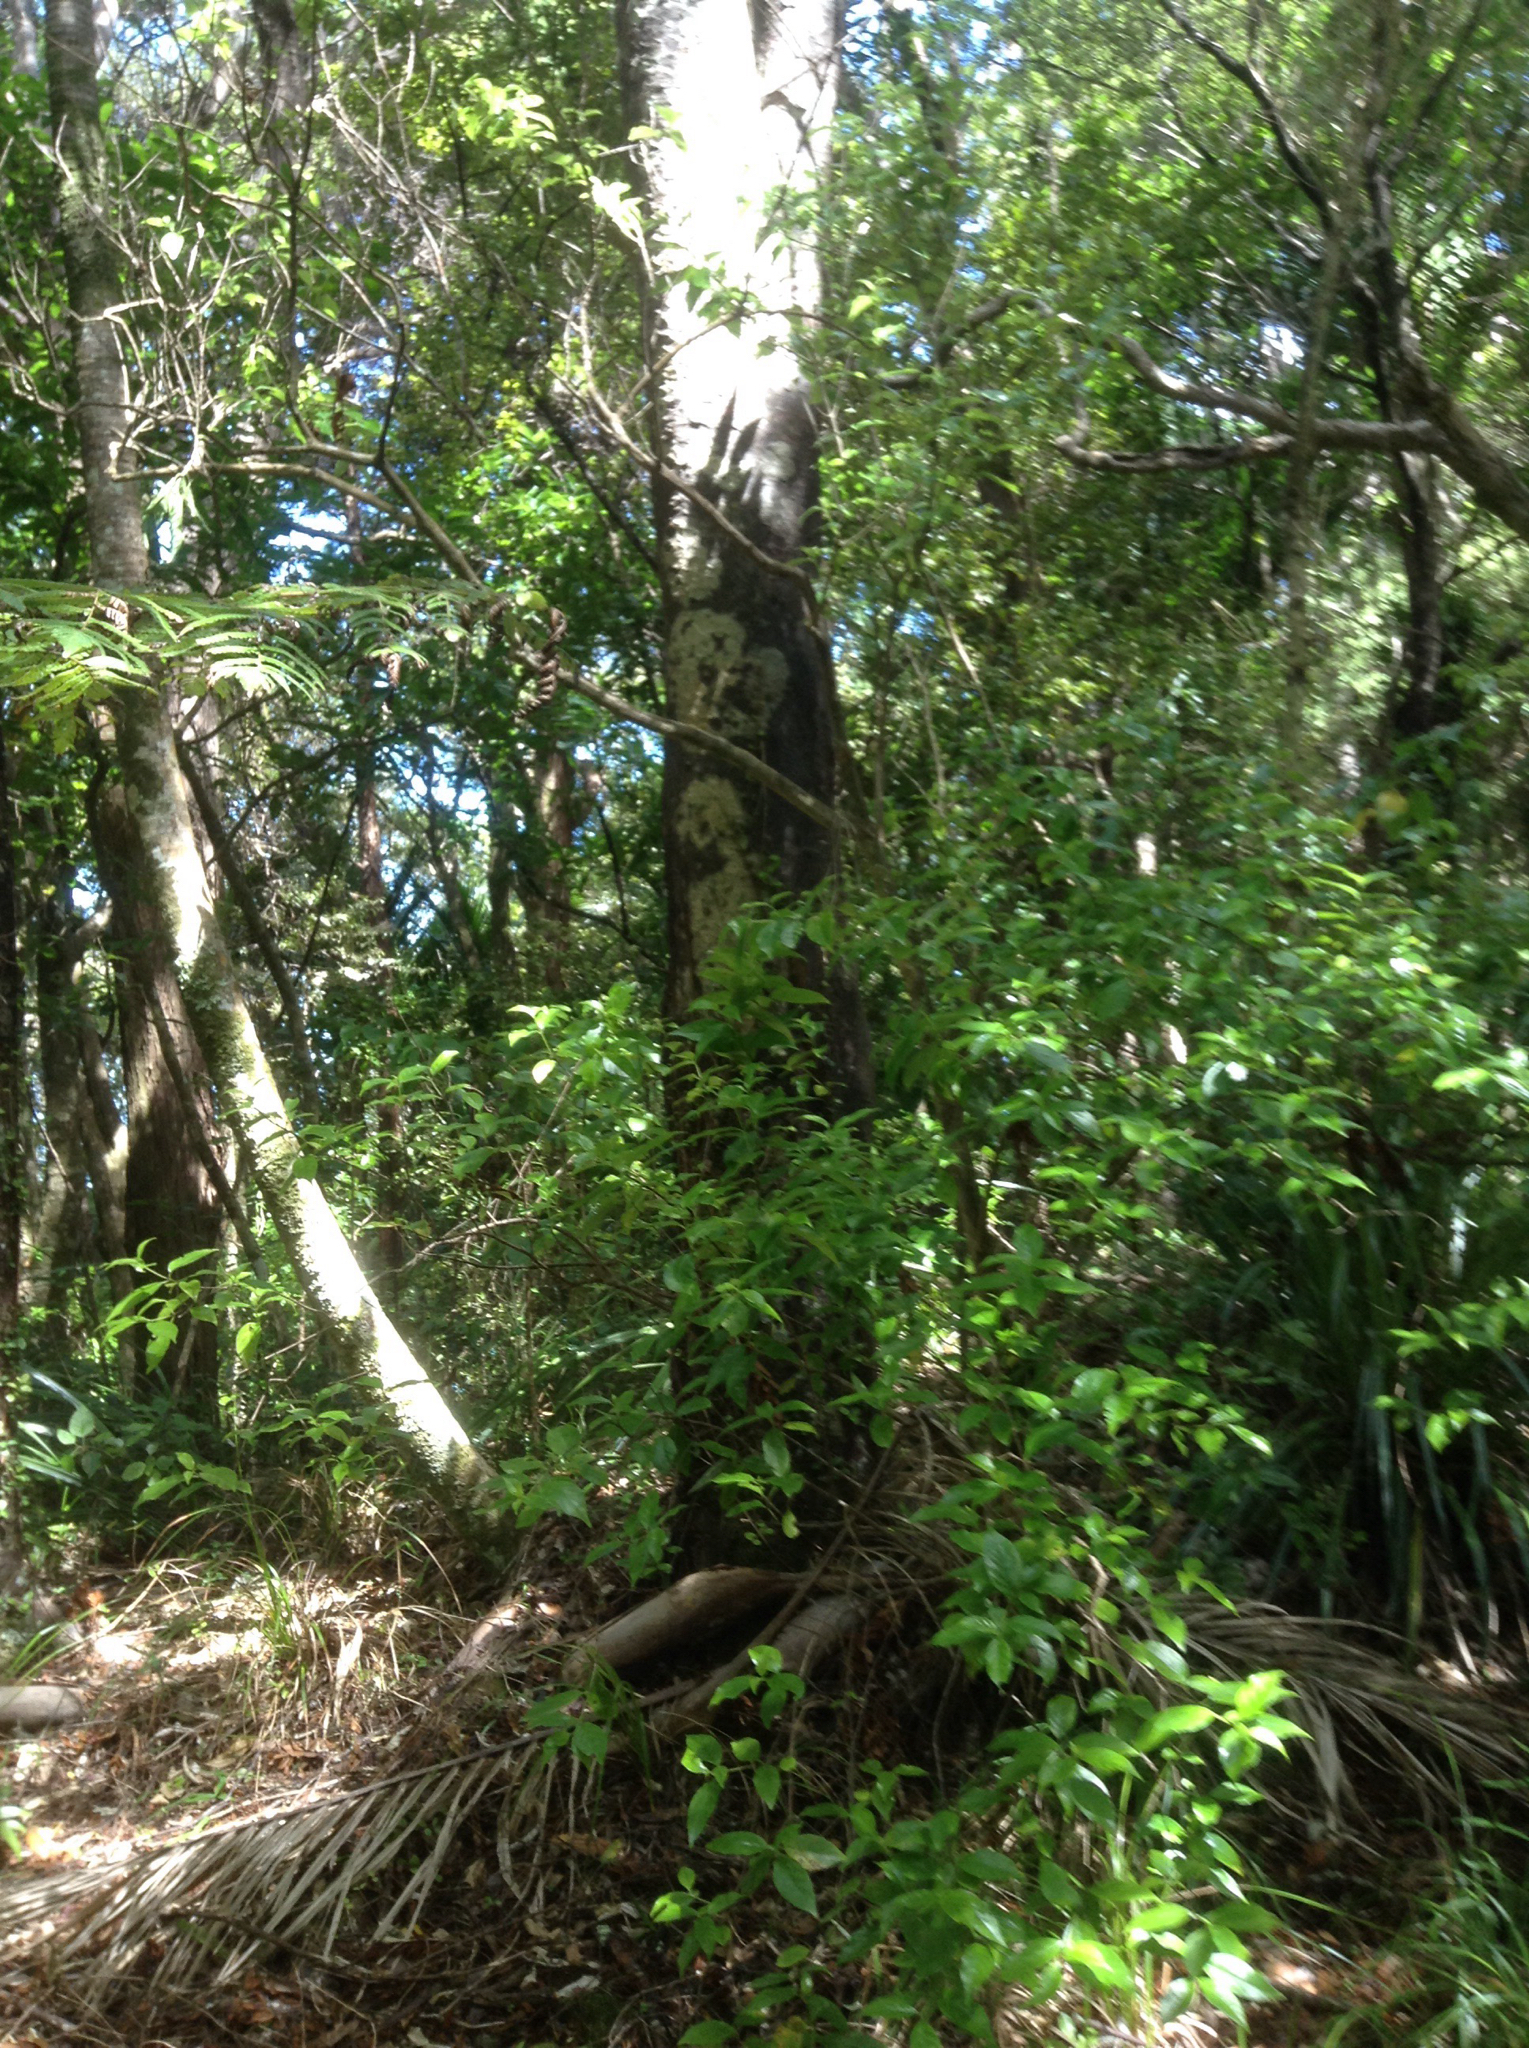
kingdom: Plantae
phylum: Tracheophyta
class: Pinopsida
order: Pinales
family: Podocarpaceae
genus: Prumnopitys
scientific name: Prumnopitys taxifolia
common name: Matai
